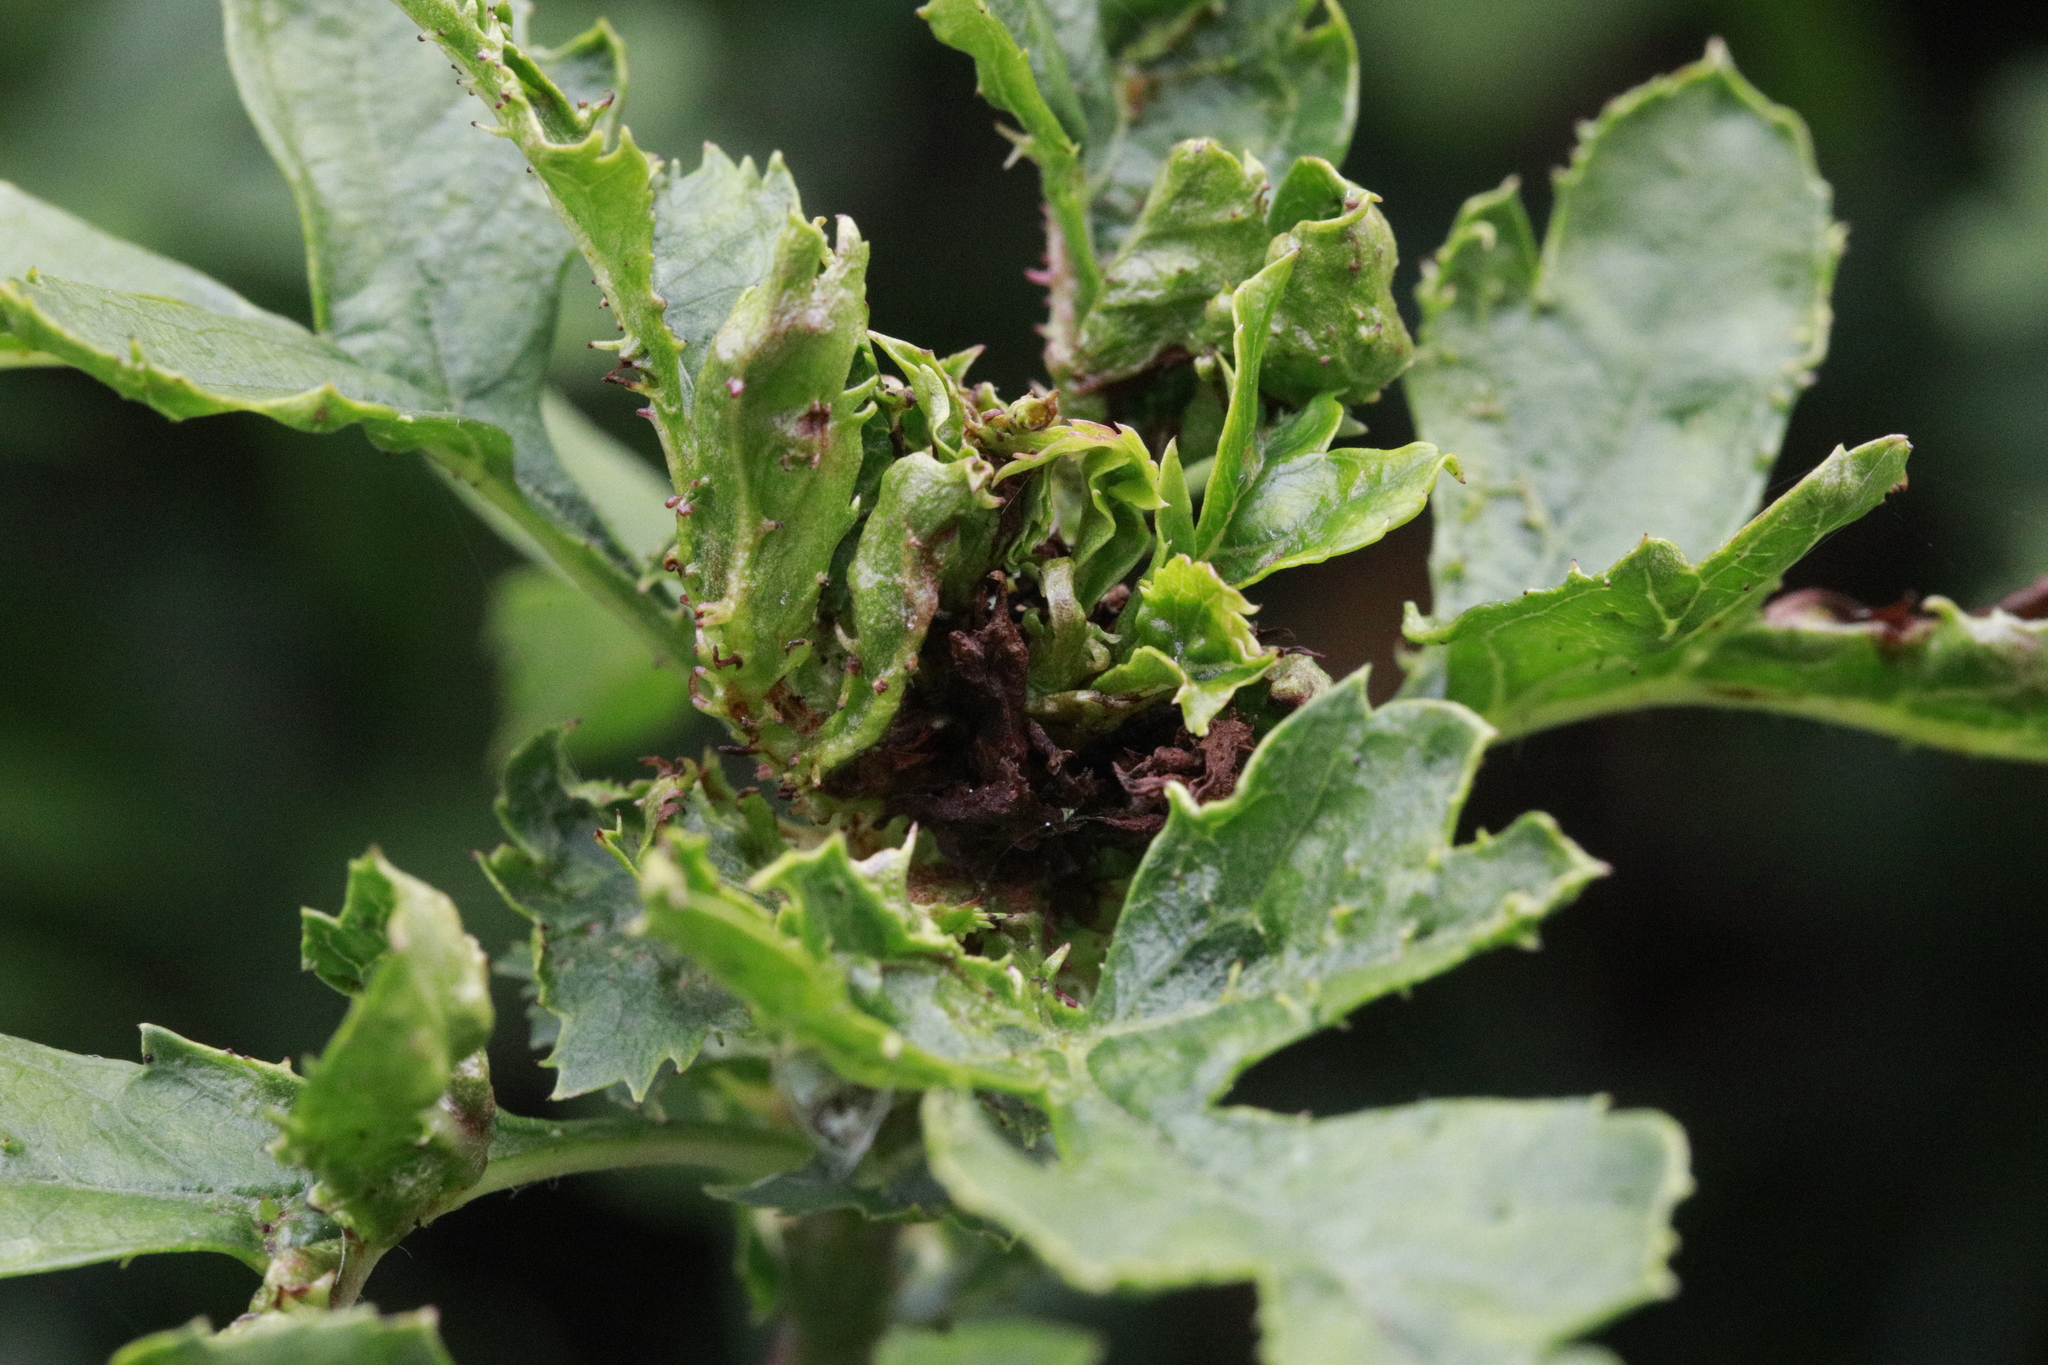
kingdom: Animalia
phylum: Arthropoda
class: Insecta
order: Diptera
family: Cecidomyiidae
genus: Dasineura
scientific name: Dasineura crataegi
